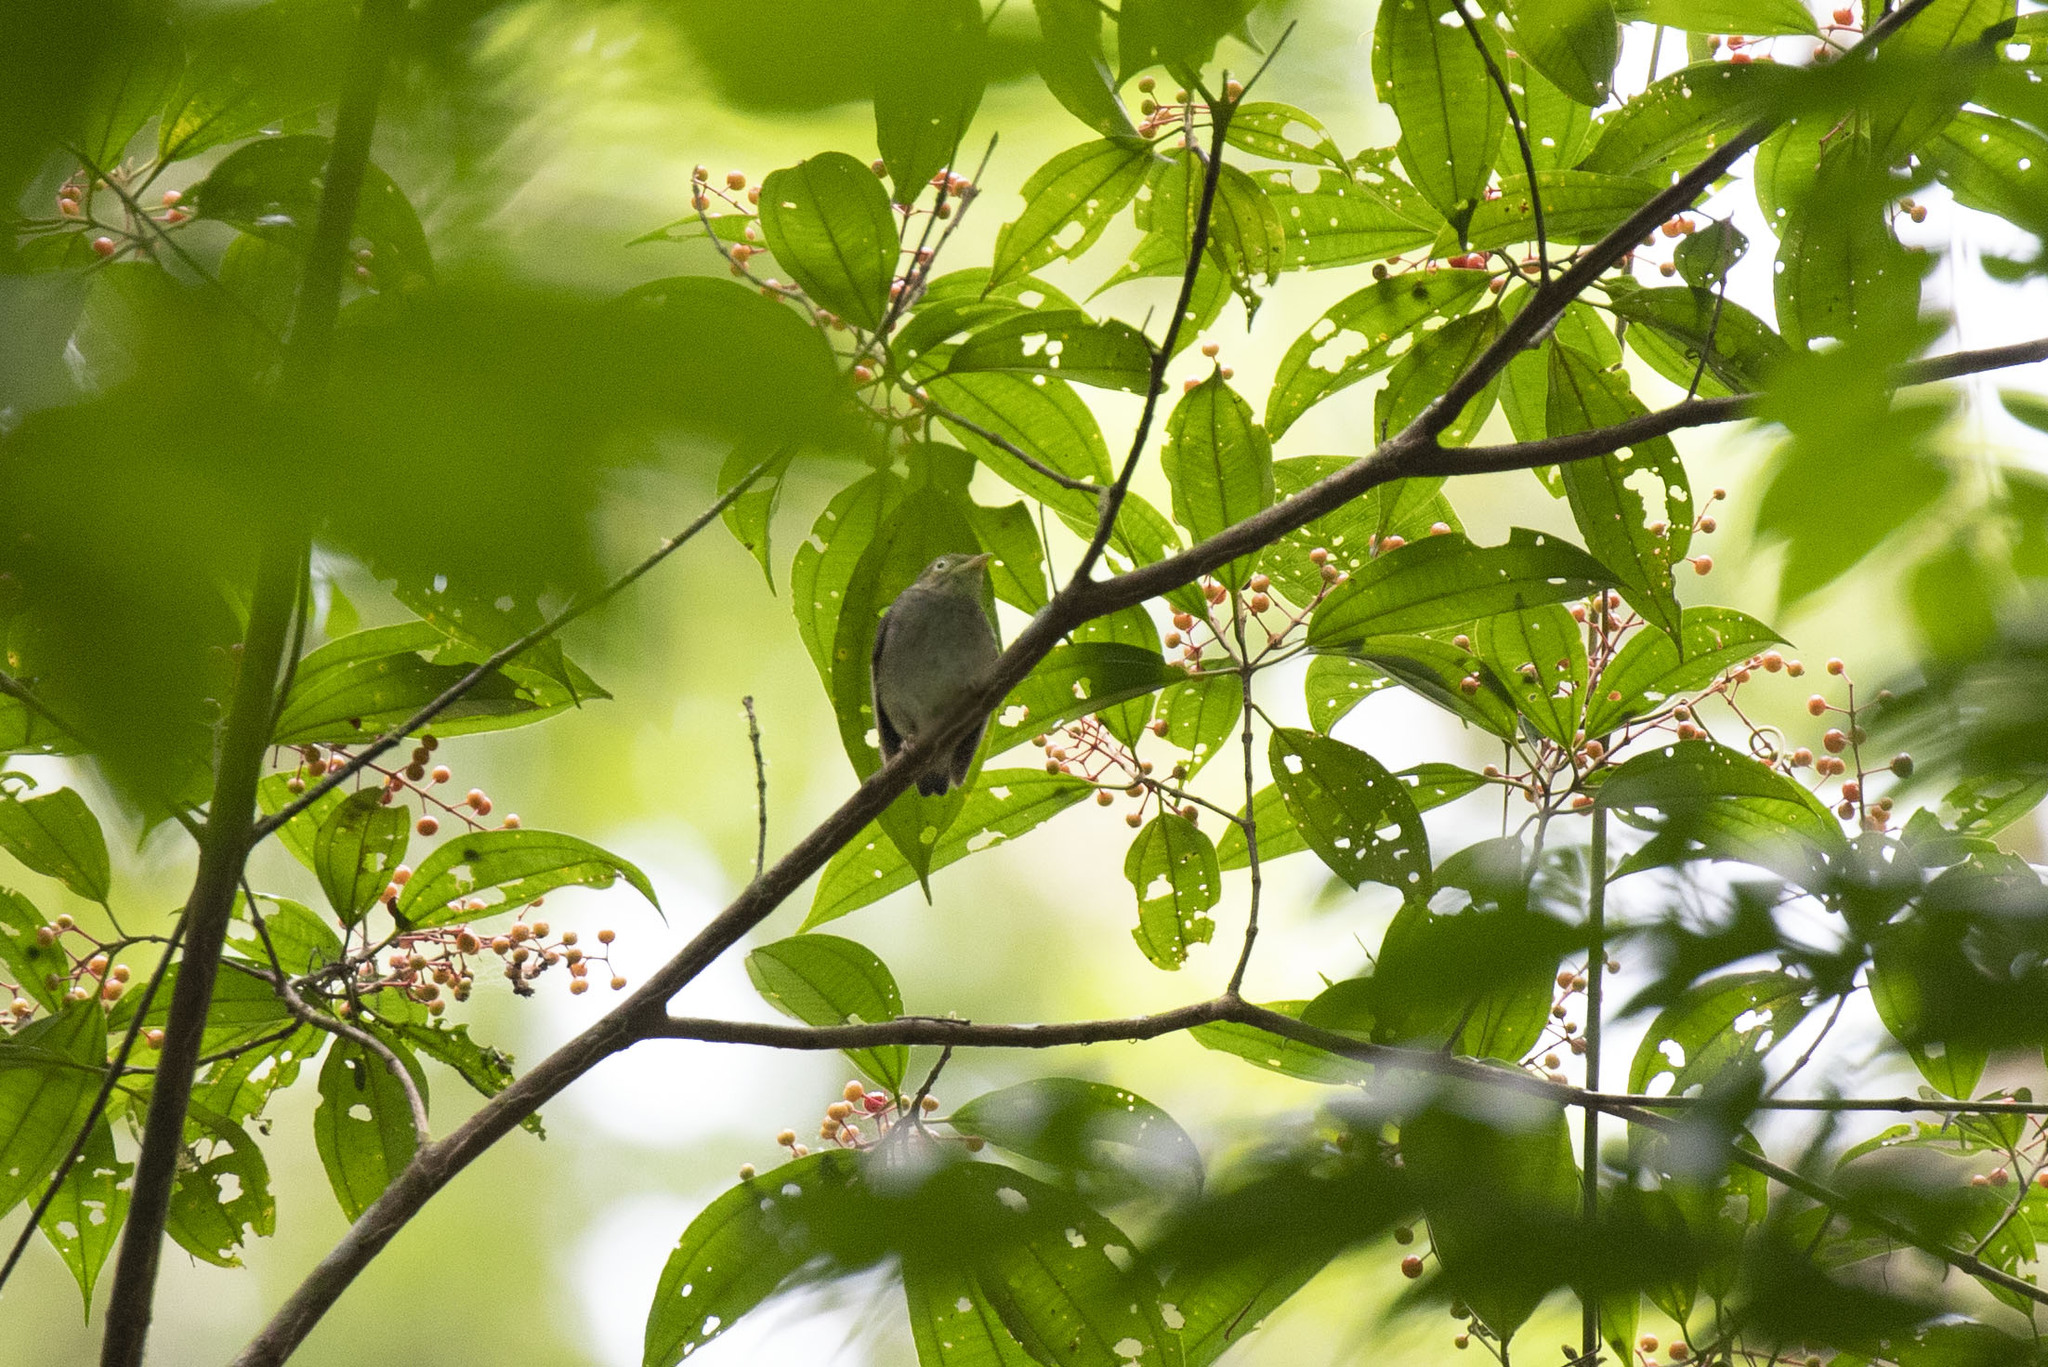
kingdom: Plantae
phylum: Tracheophyta
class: Magnoliopsida
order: Myrtales
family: Melastomataceae
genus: Miconia
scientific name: Miconia sarmentosa
